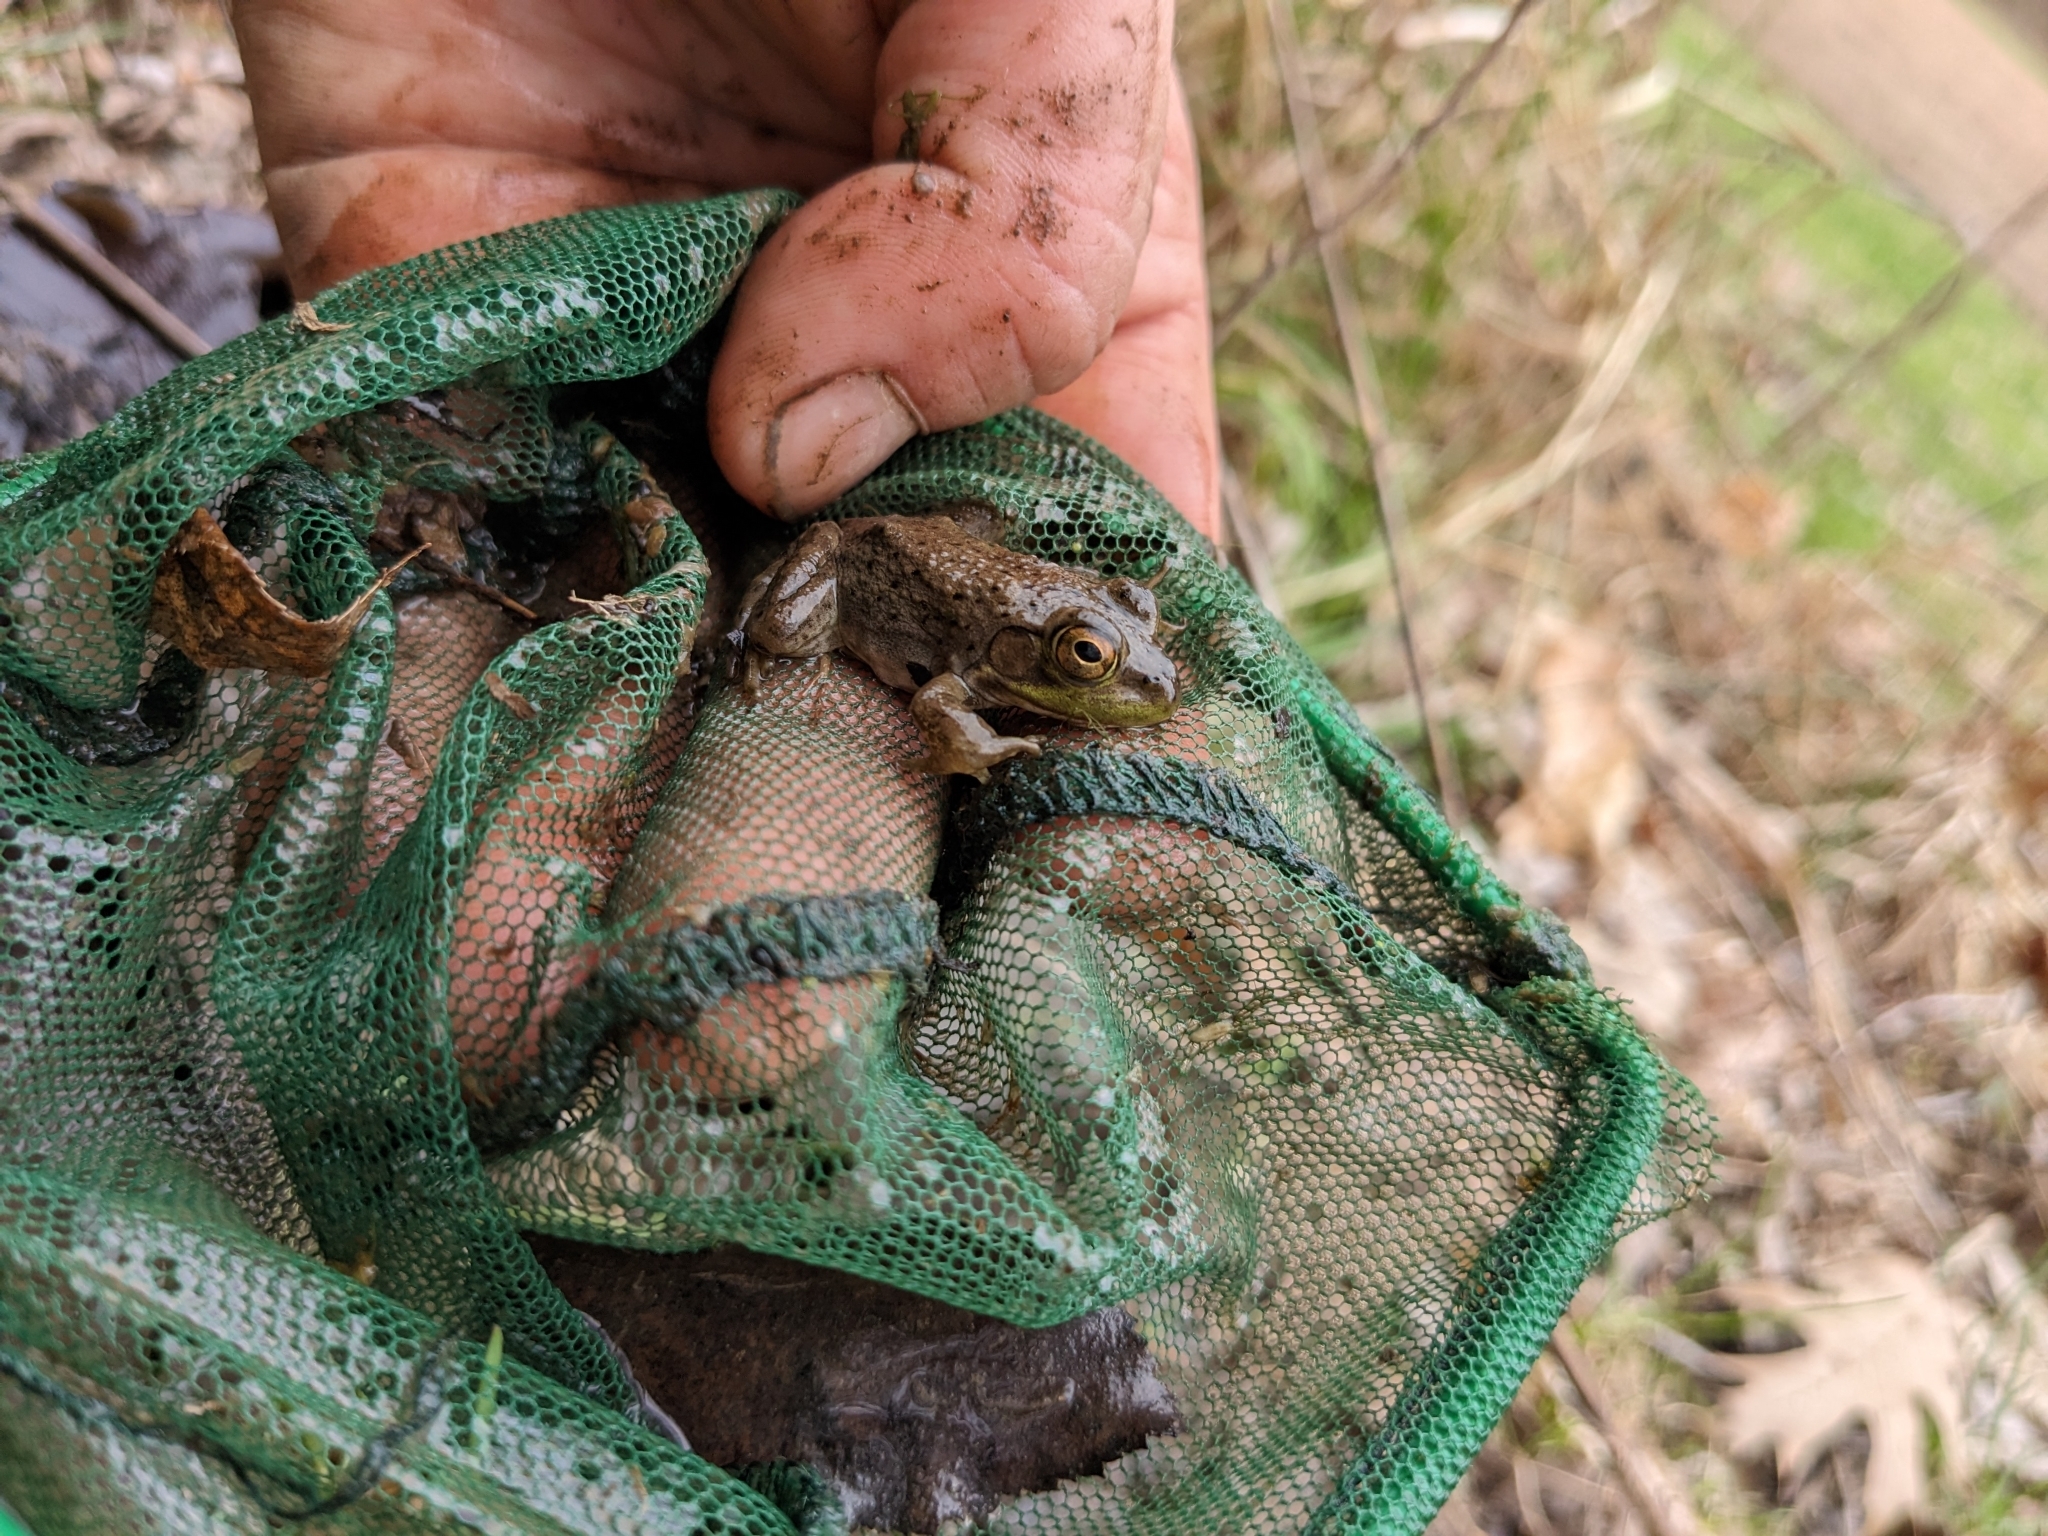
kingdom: Animalia
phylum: Chordata
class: Amphibia
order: Anura
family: Ranidae
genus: Lithobates
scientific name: Lithobates catesbeianus
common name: American bullfrog
